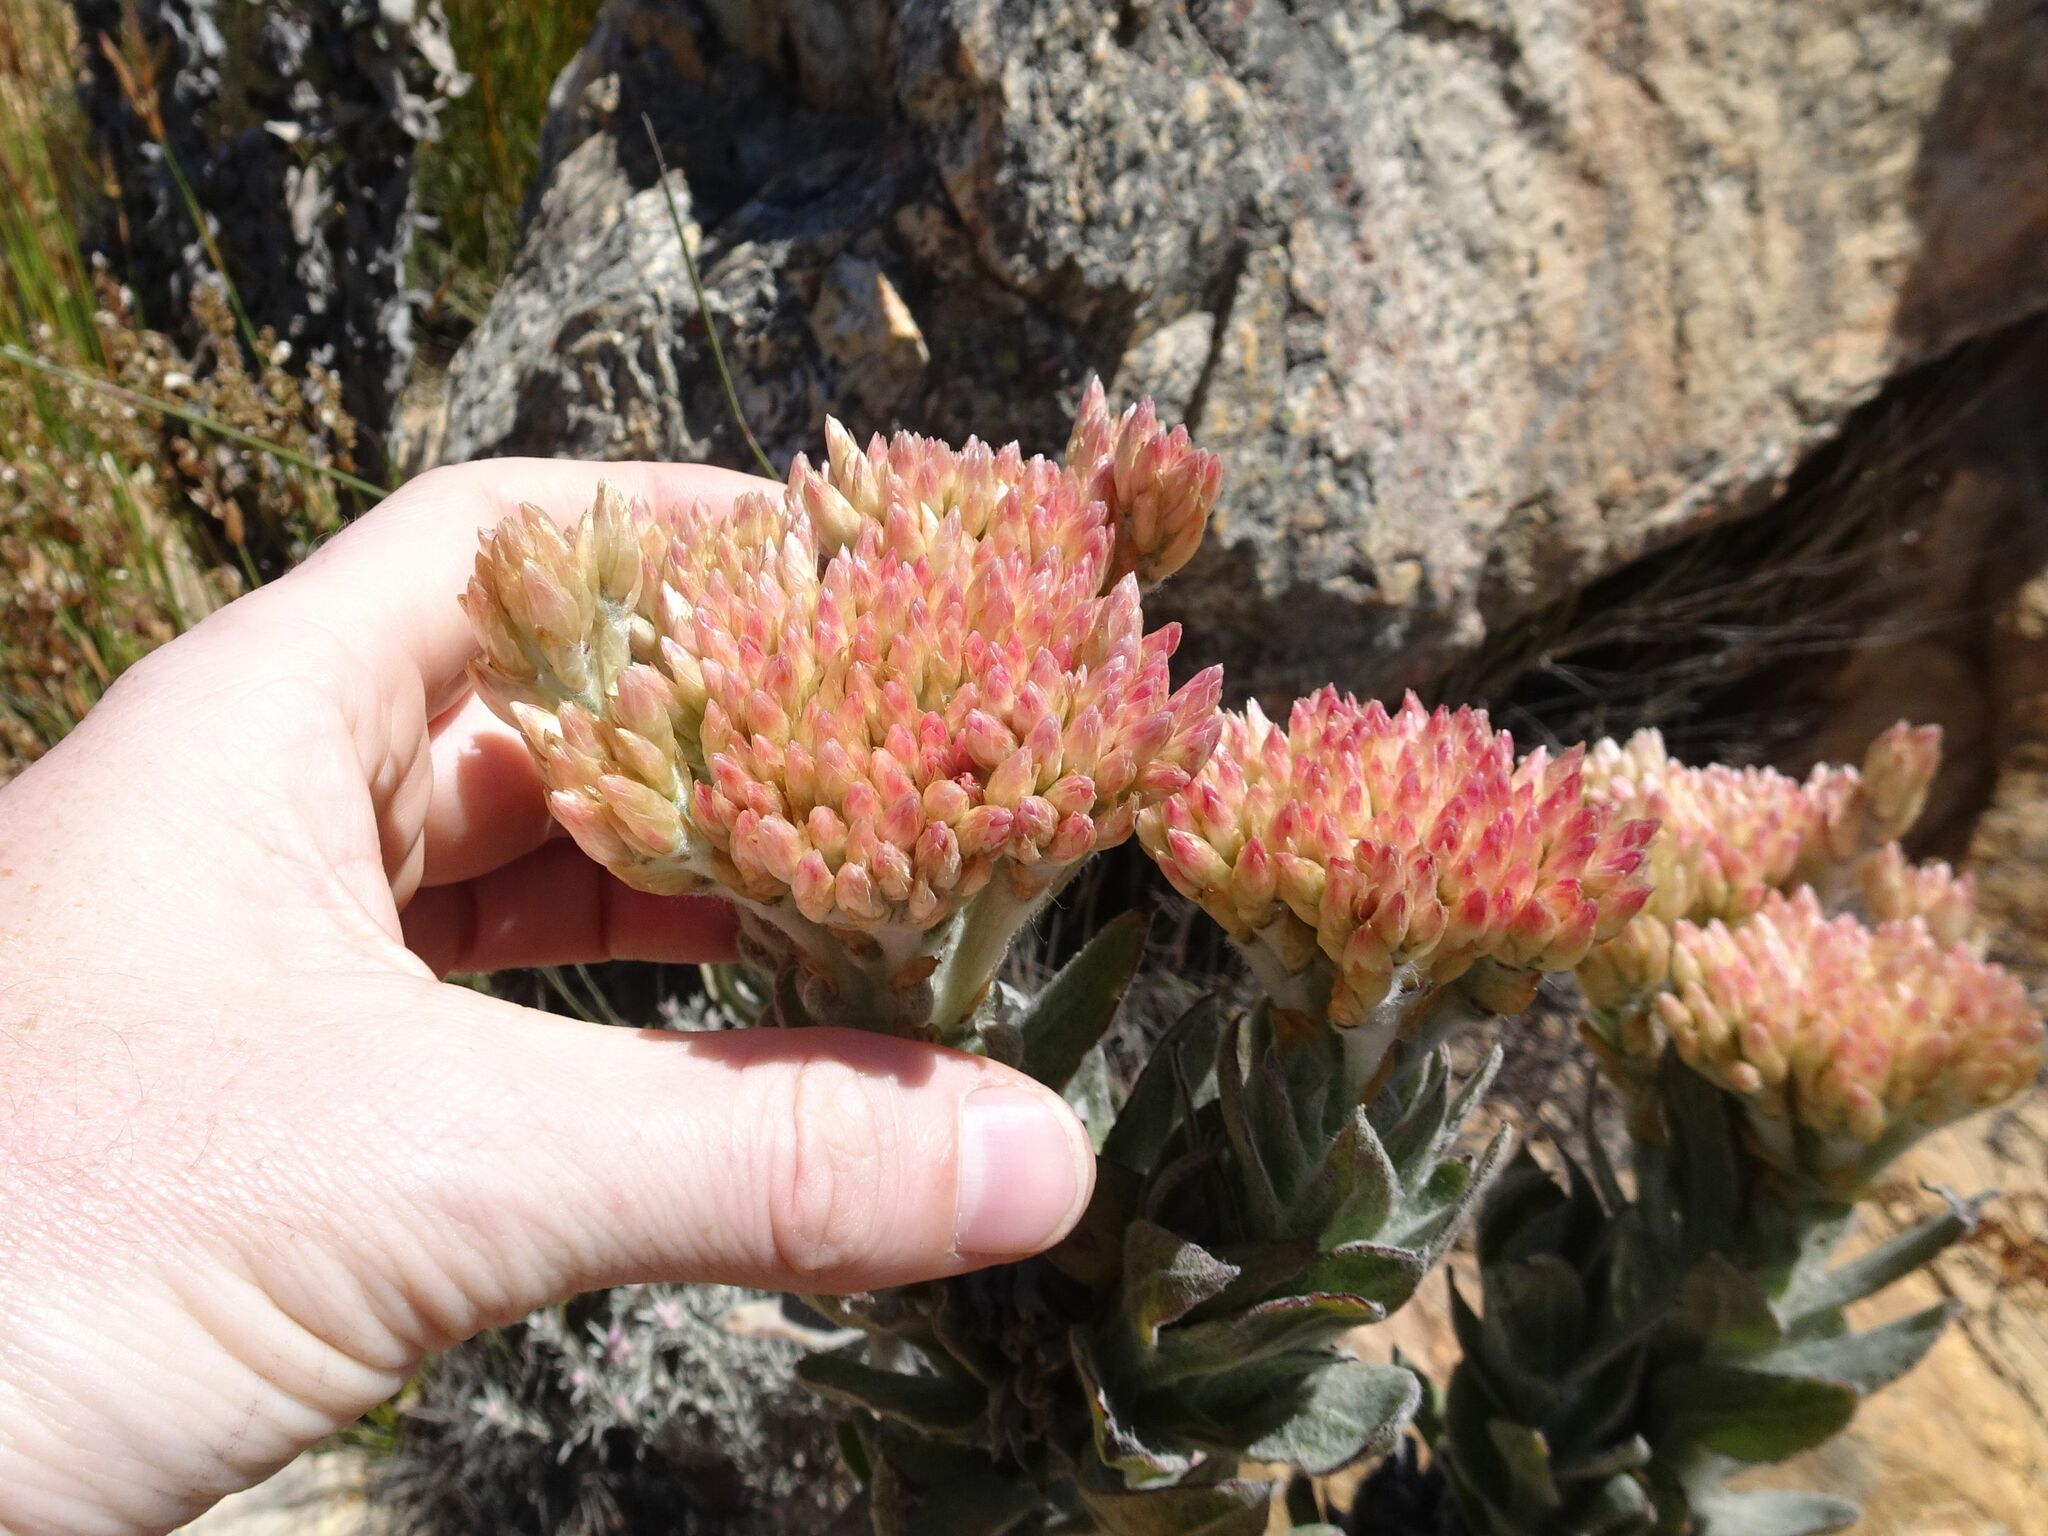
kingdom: Plantae
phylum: Tracheophyta
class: Magnoliopsida
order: Asterales
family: Asteraceae
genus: Syncarpha
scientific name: Syncarpha milleflora
